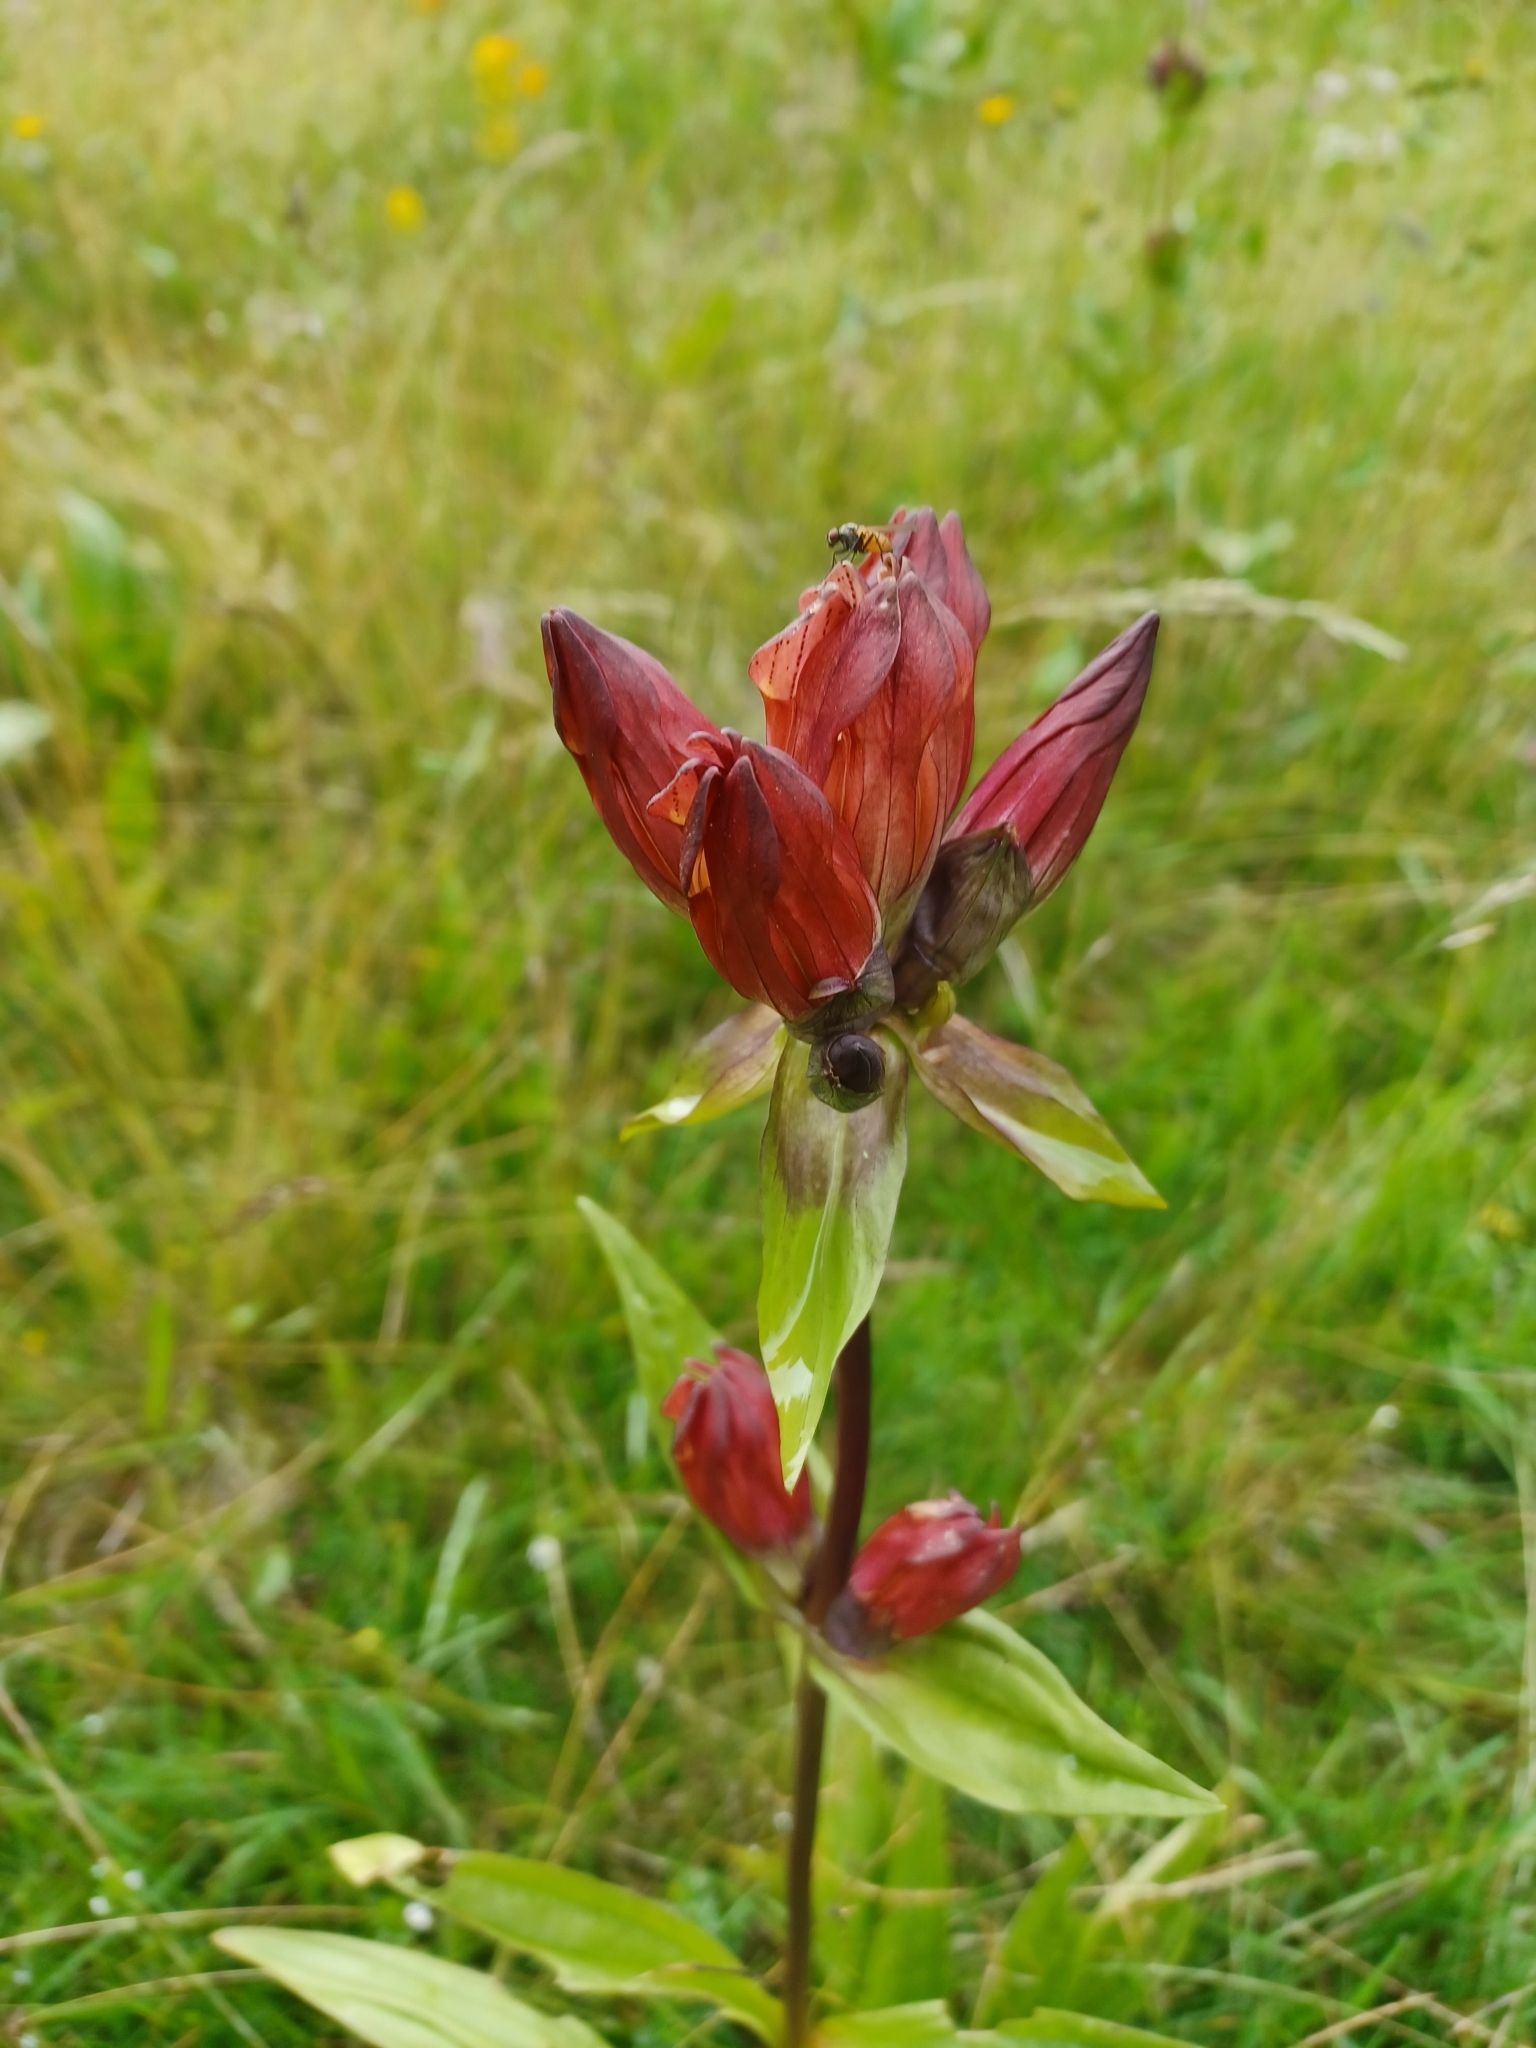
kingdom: Plantae
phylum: Tracheophyta
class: Magnoliopsida
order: Gentianales
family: Gentianaceae
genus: Gentiana
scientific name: Gentiana purpurea
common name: Purple gentian
